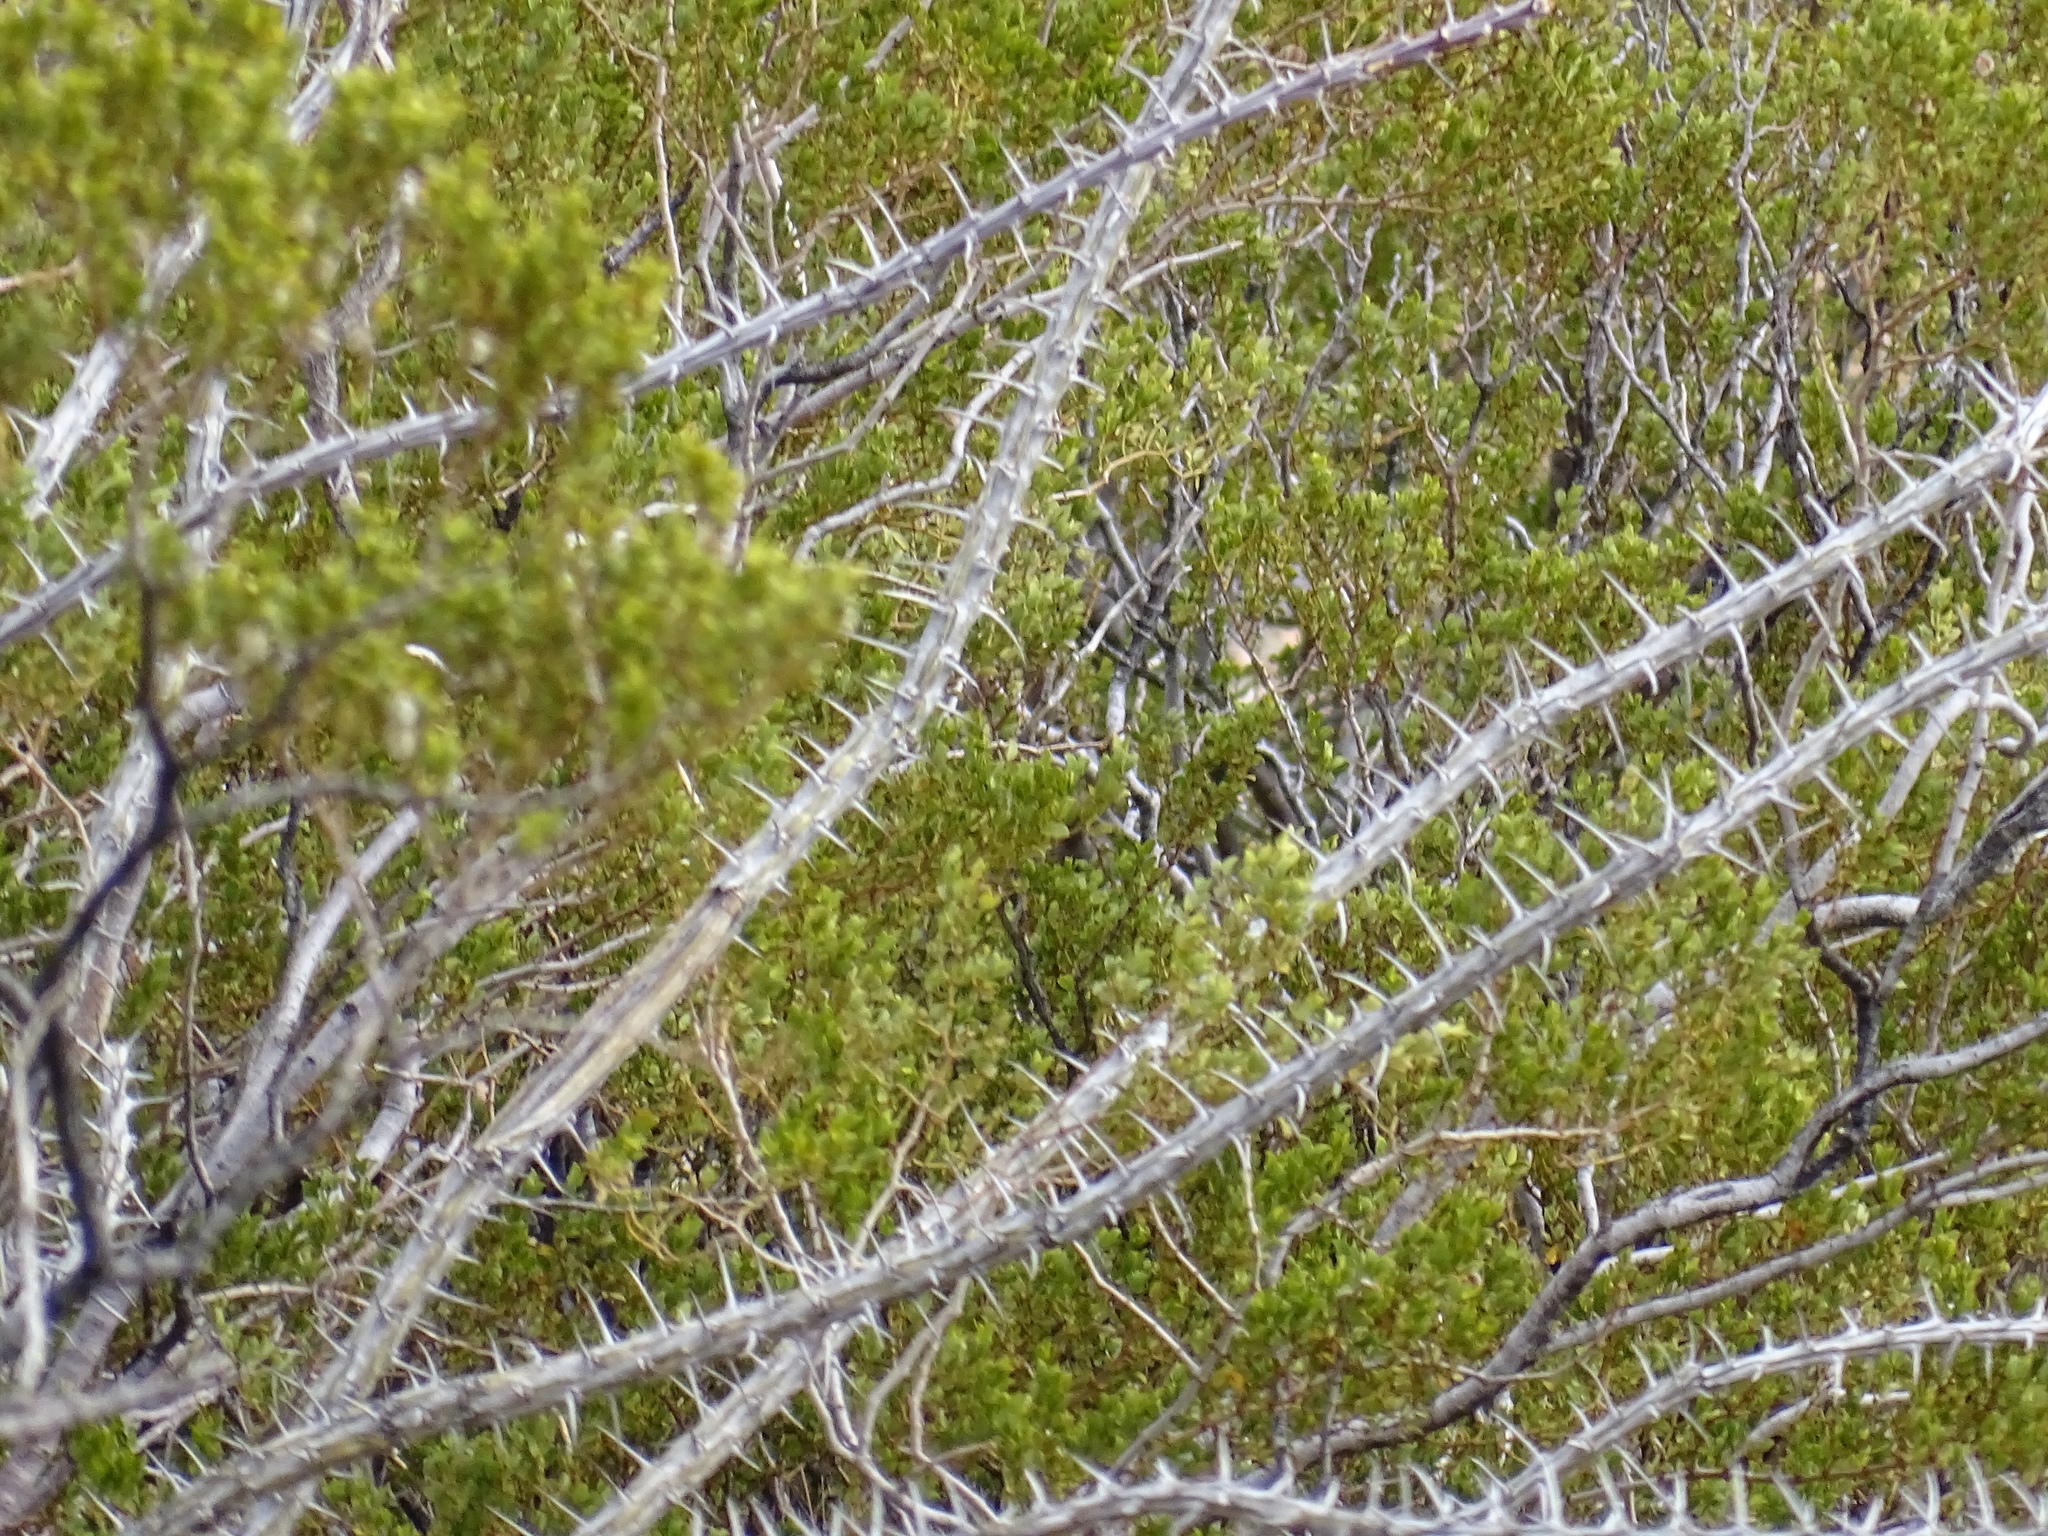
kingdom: Plantae
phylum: Tracheophyta
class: Magnoliopsida
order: Zygophyllales
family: Zygophyllaceae
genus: Larrea
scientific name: Larrea tridentata
